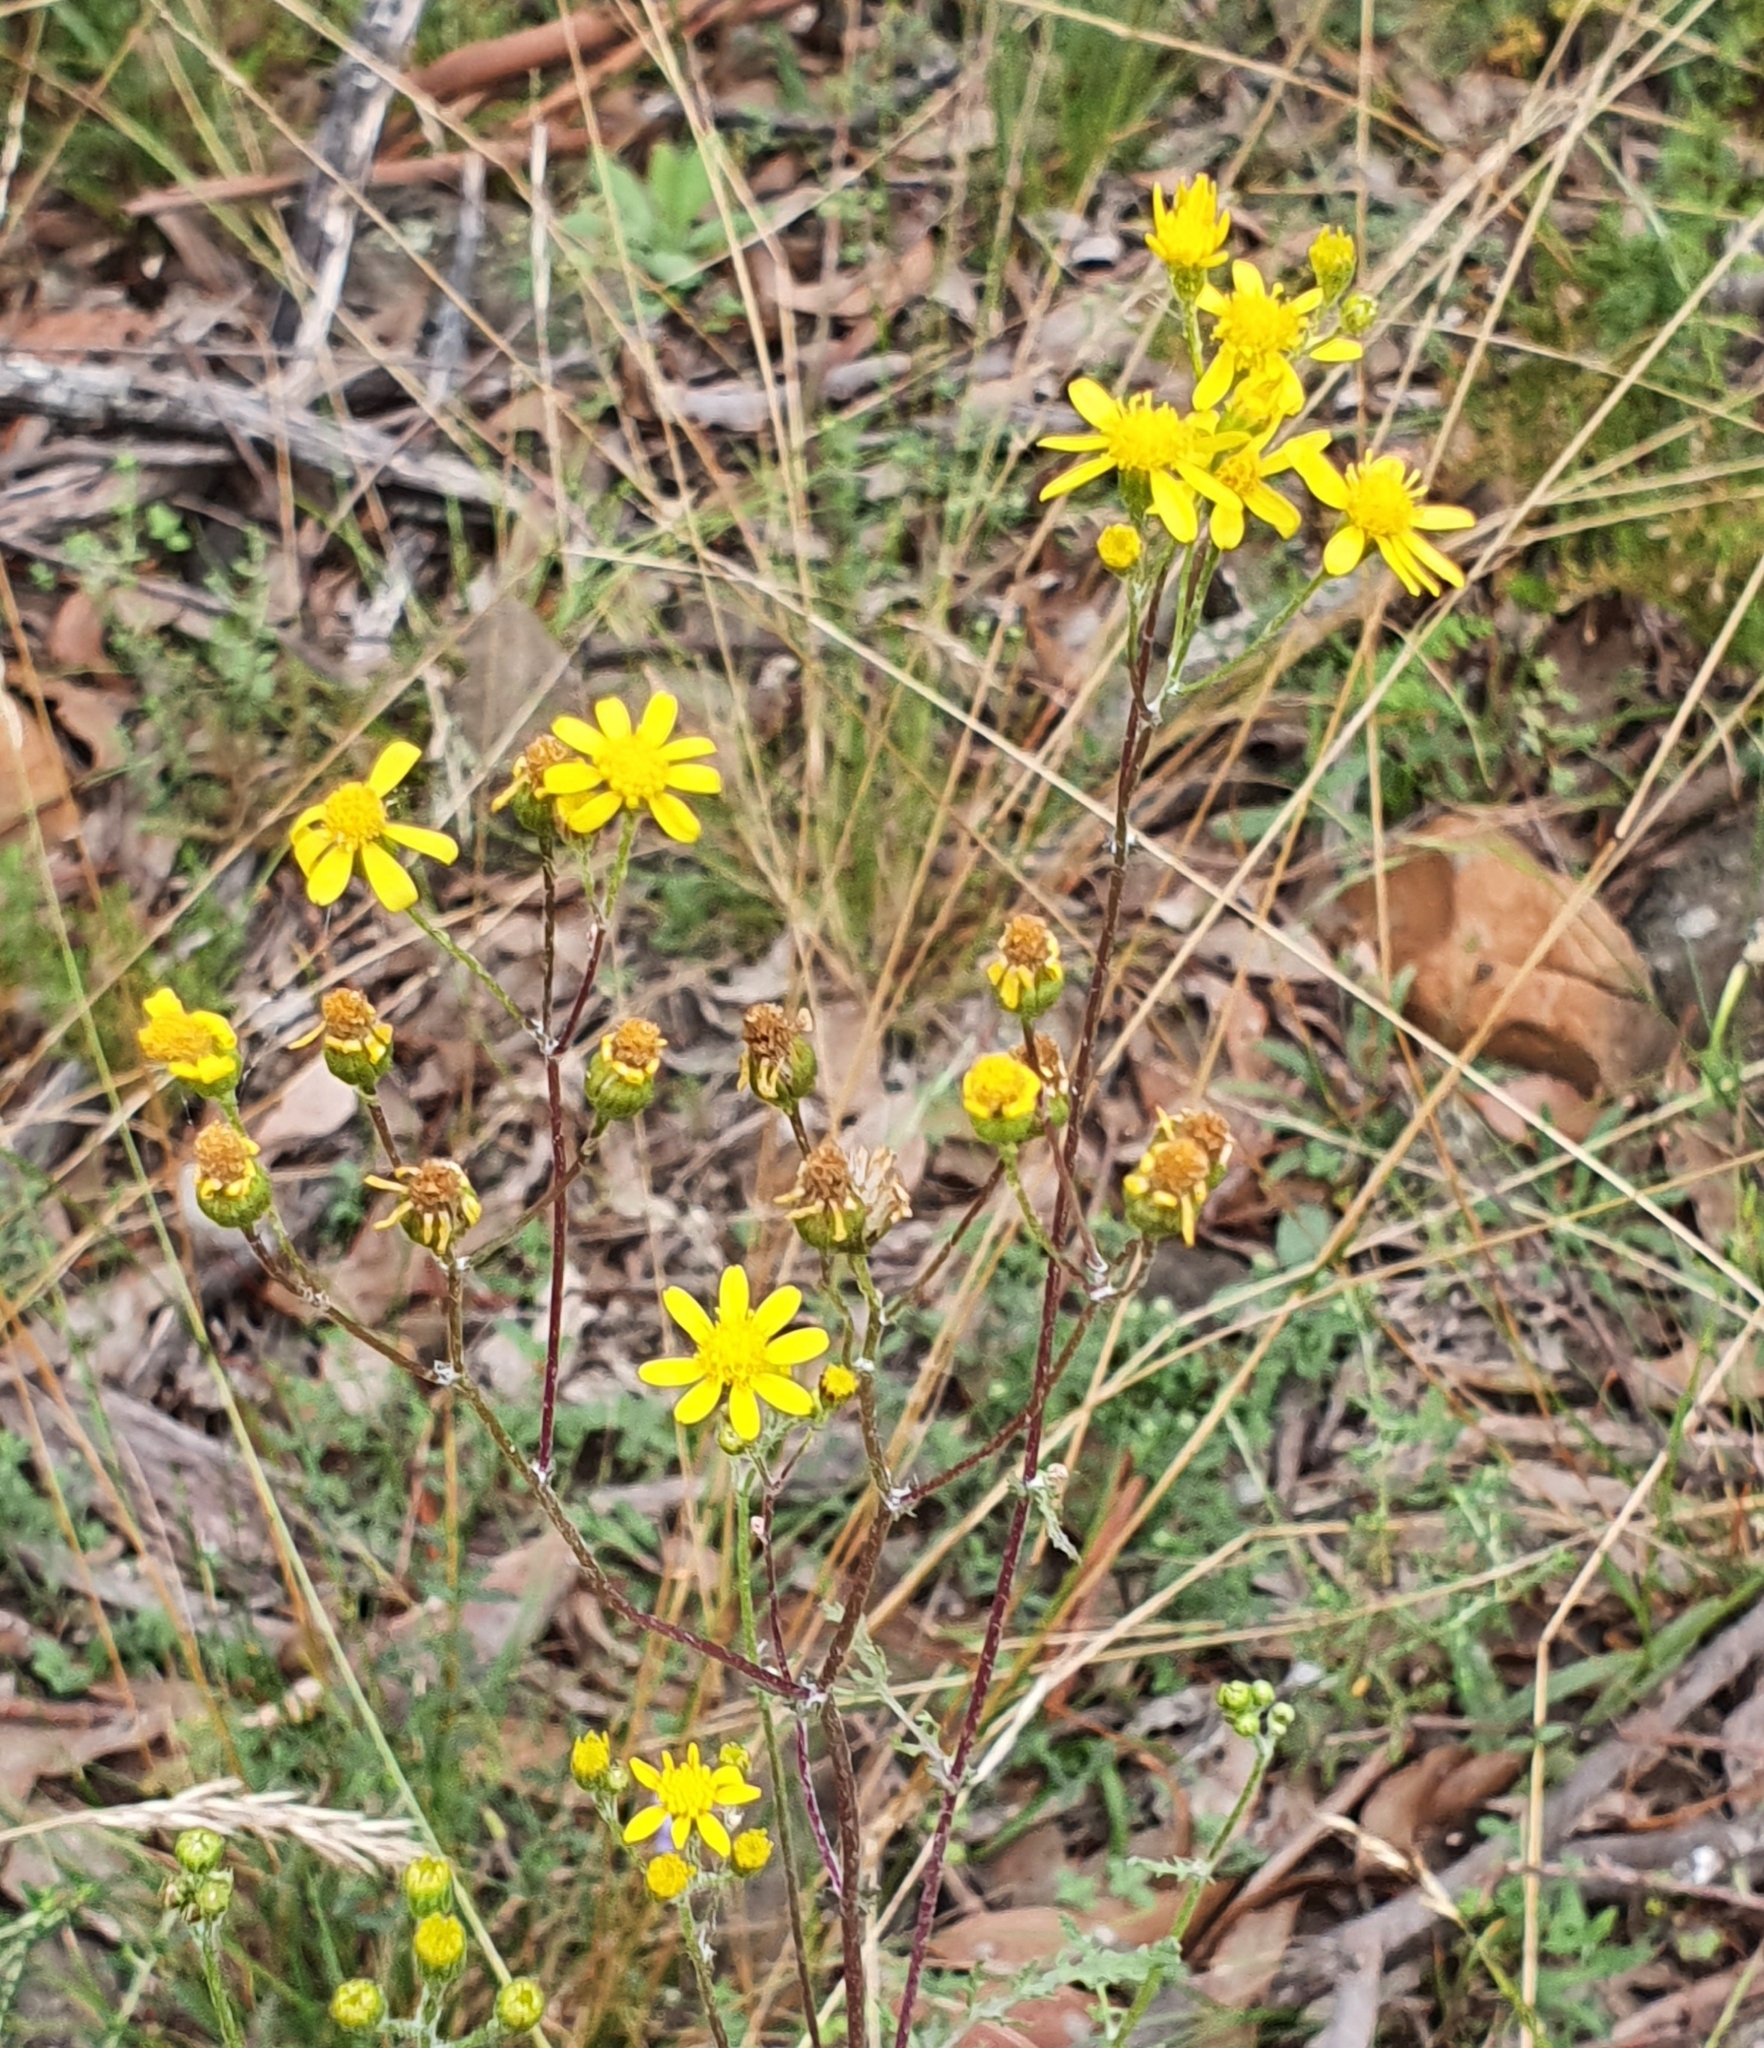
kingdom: Plantae
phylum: Tracheophyta
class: Magnoliopsida
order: Asterales
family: Asteraceae
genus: Cineraria
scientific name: Cineraria lyratiformis
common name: Cineraria
